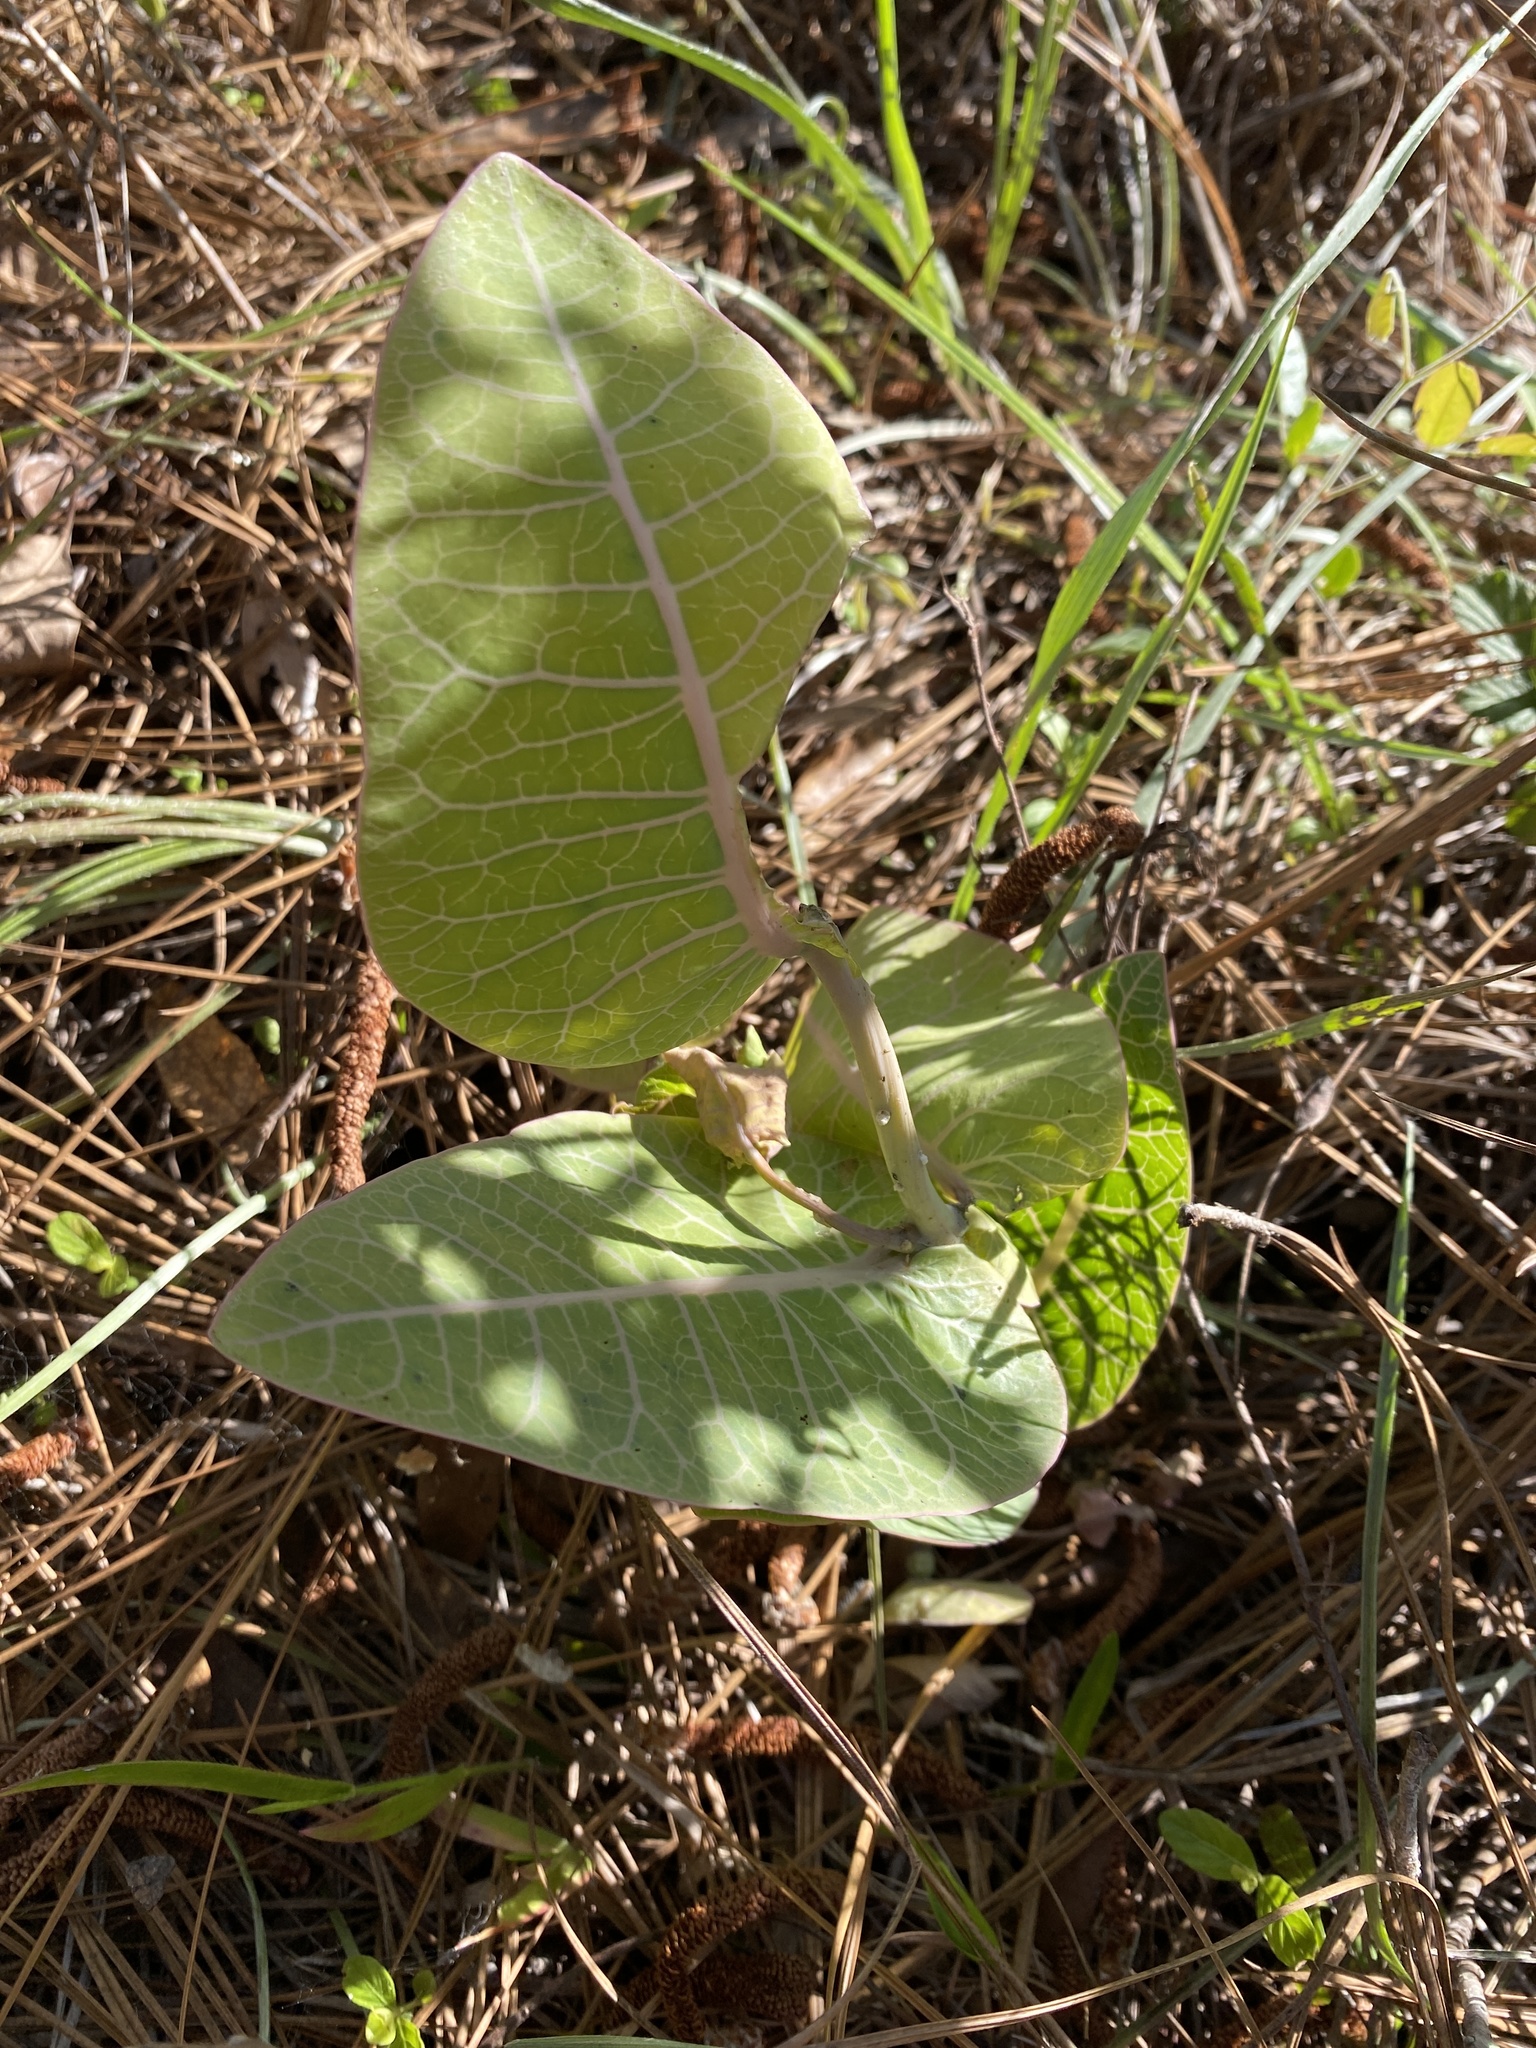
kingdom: Plantae
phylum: Tracheophyta
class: Magnoliopsida
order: Gentianales
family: Apocynaceae
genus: Asclepias
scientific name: Asclepias humistrata
